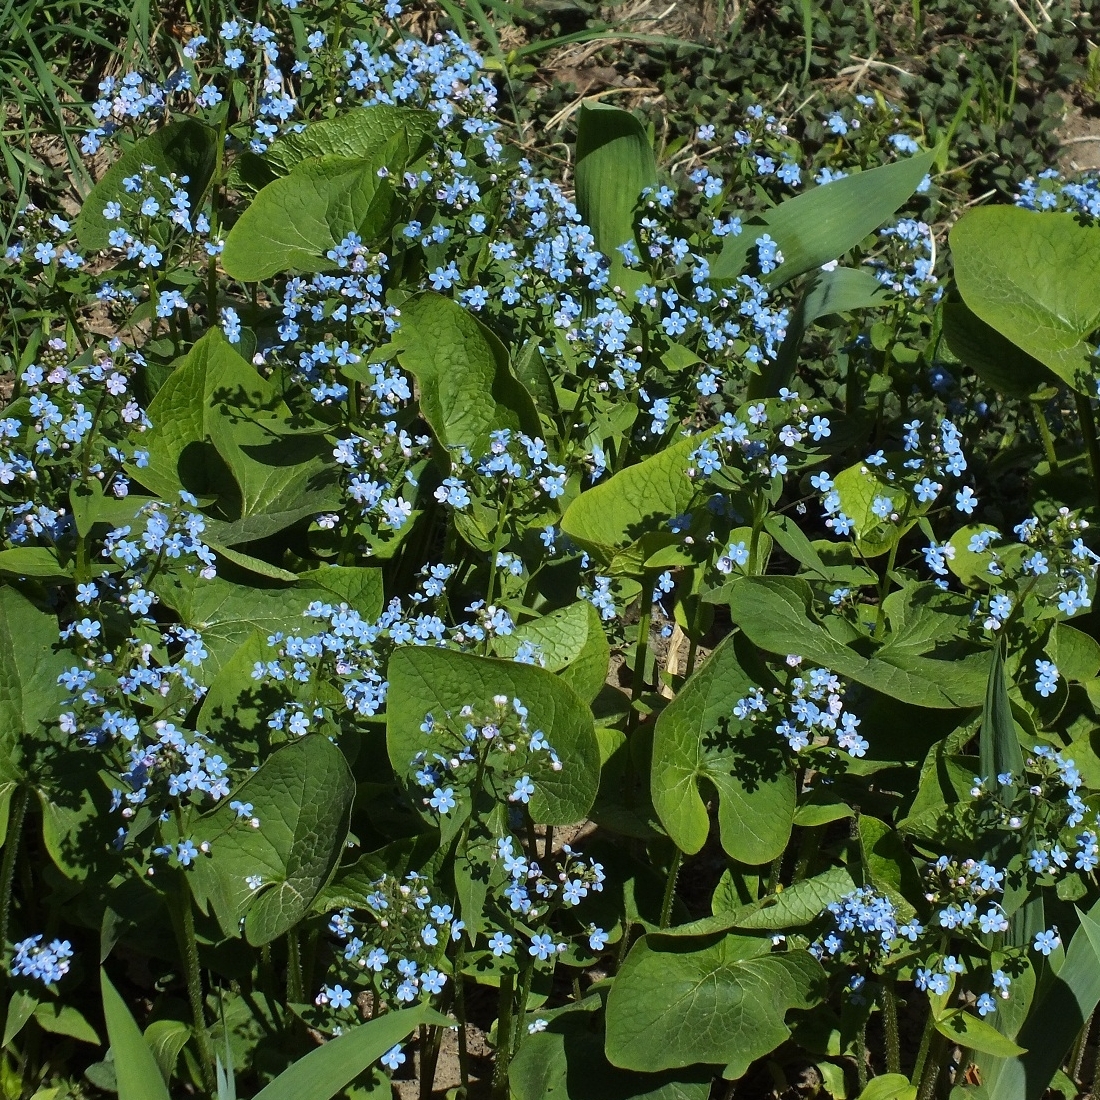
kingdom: Plantae
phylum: Tracheophyta
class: Magnoliopsida
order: Boraginales
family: Boraginaceae
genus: Brunnera
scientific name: Brunnera macrophylla
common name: Great forget-me-not
